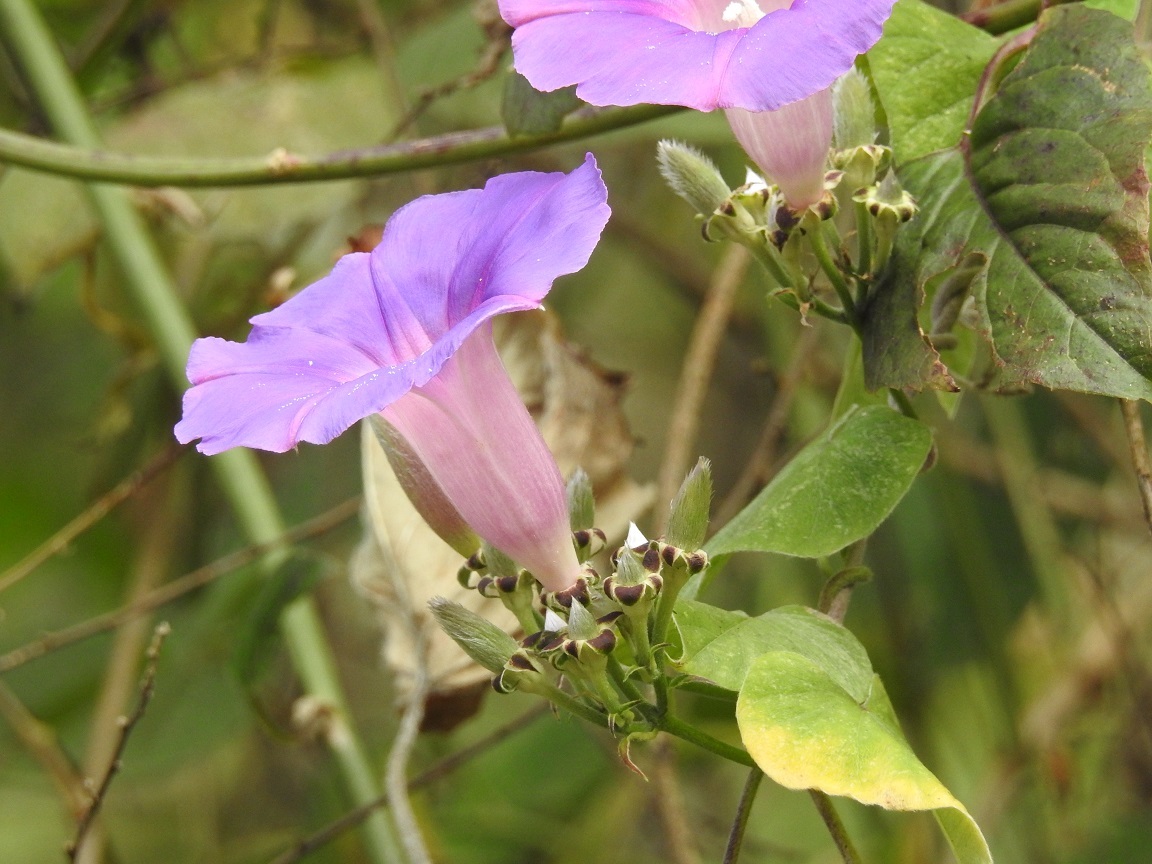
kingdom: Plantae
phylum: Tracheophyta
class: Magnoliopsida
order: Solanales
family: Convolvulaceae
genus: Ipomoea
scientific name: Ipomoea leucotricha
